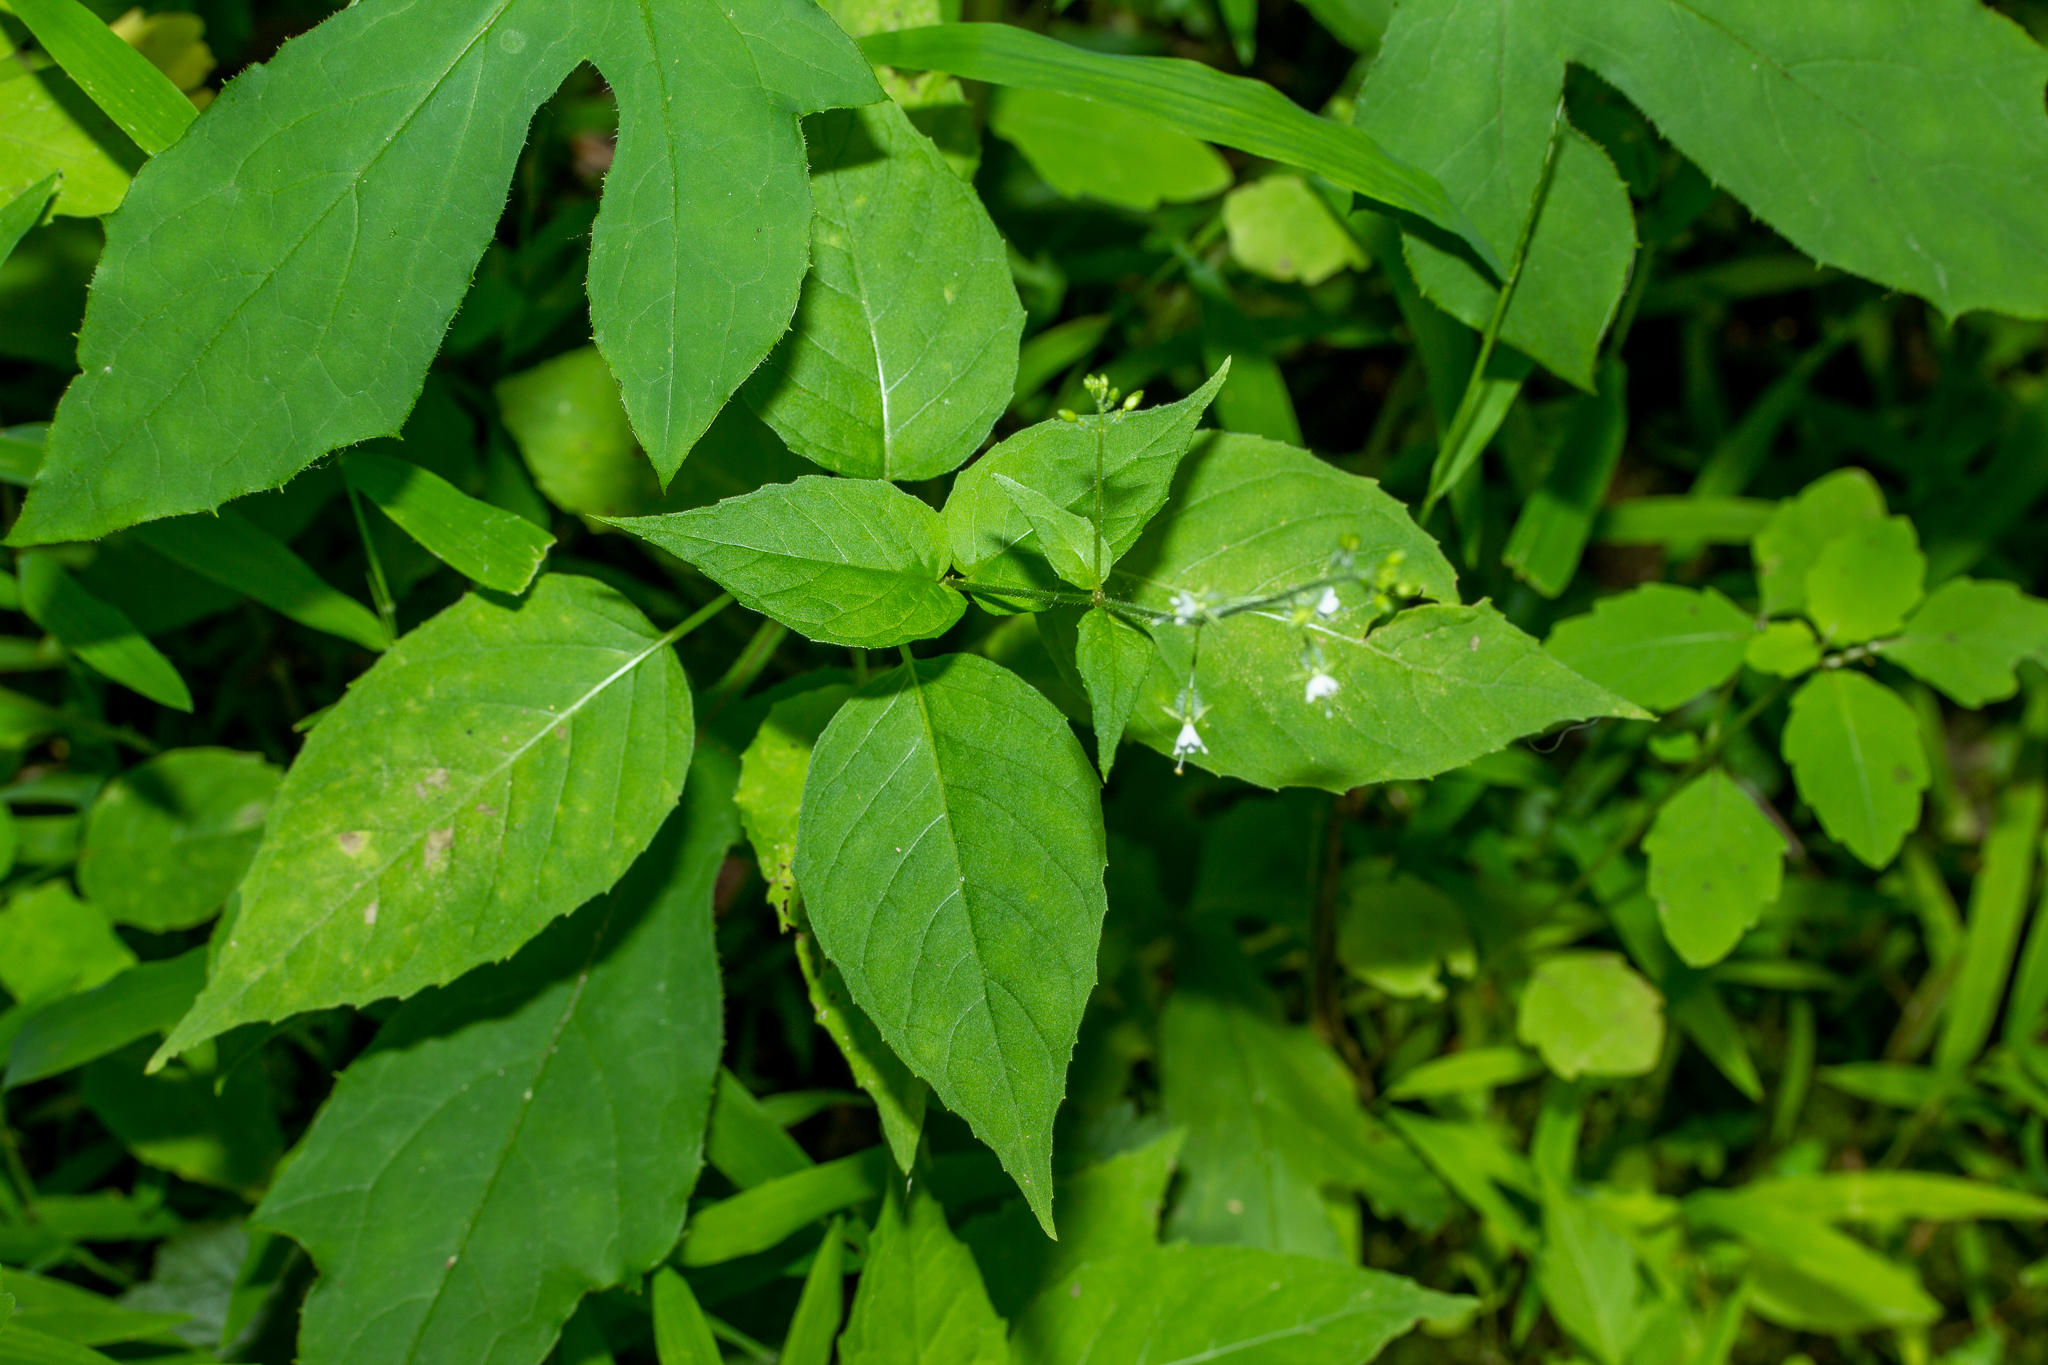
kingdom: Plantae
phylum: Tracheophyta
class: Magnoliopsida
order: Myrtales
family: Onagraceae
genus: Circaea
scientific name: Circaea canadensis
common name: Broad-leaved enchanter's nightshade
